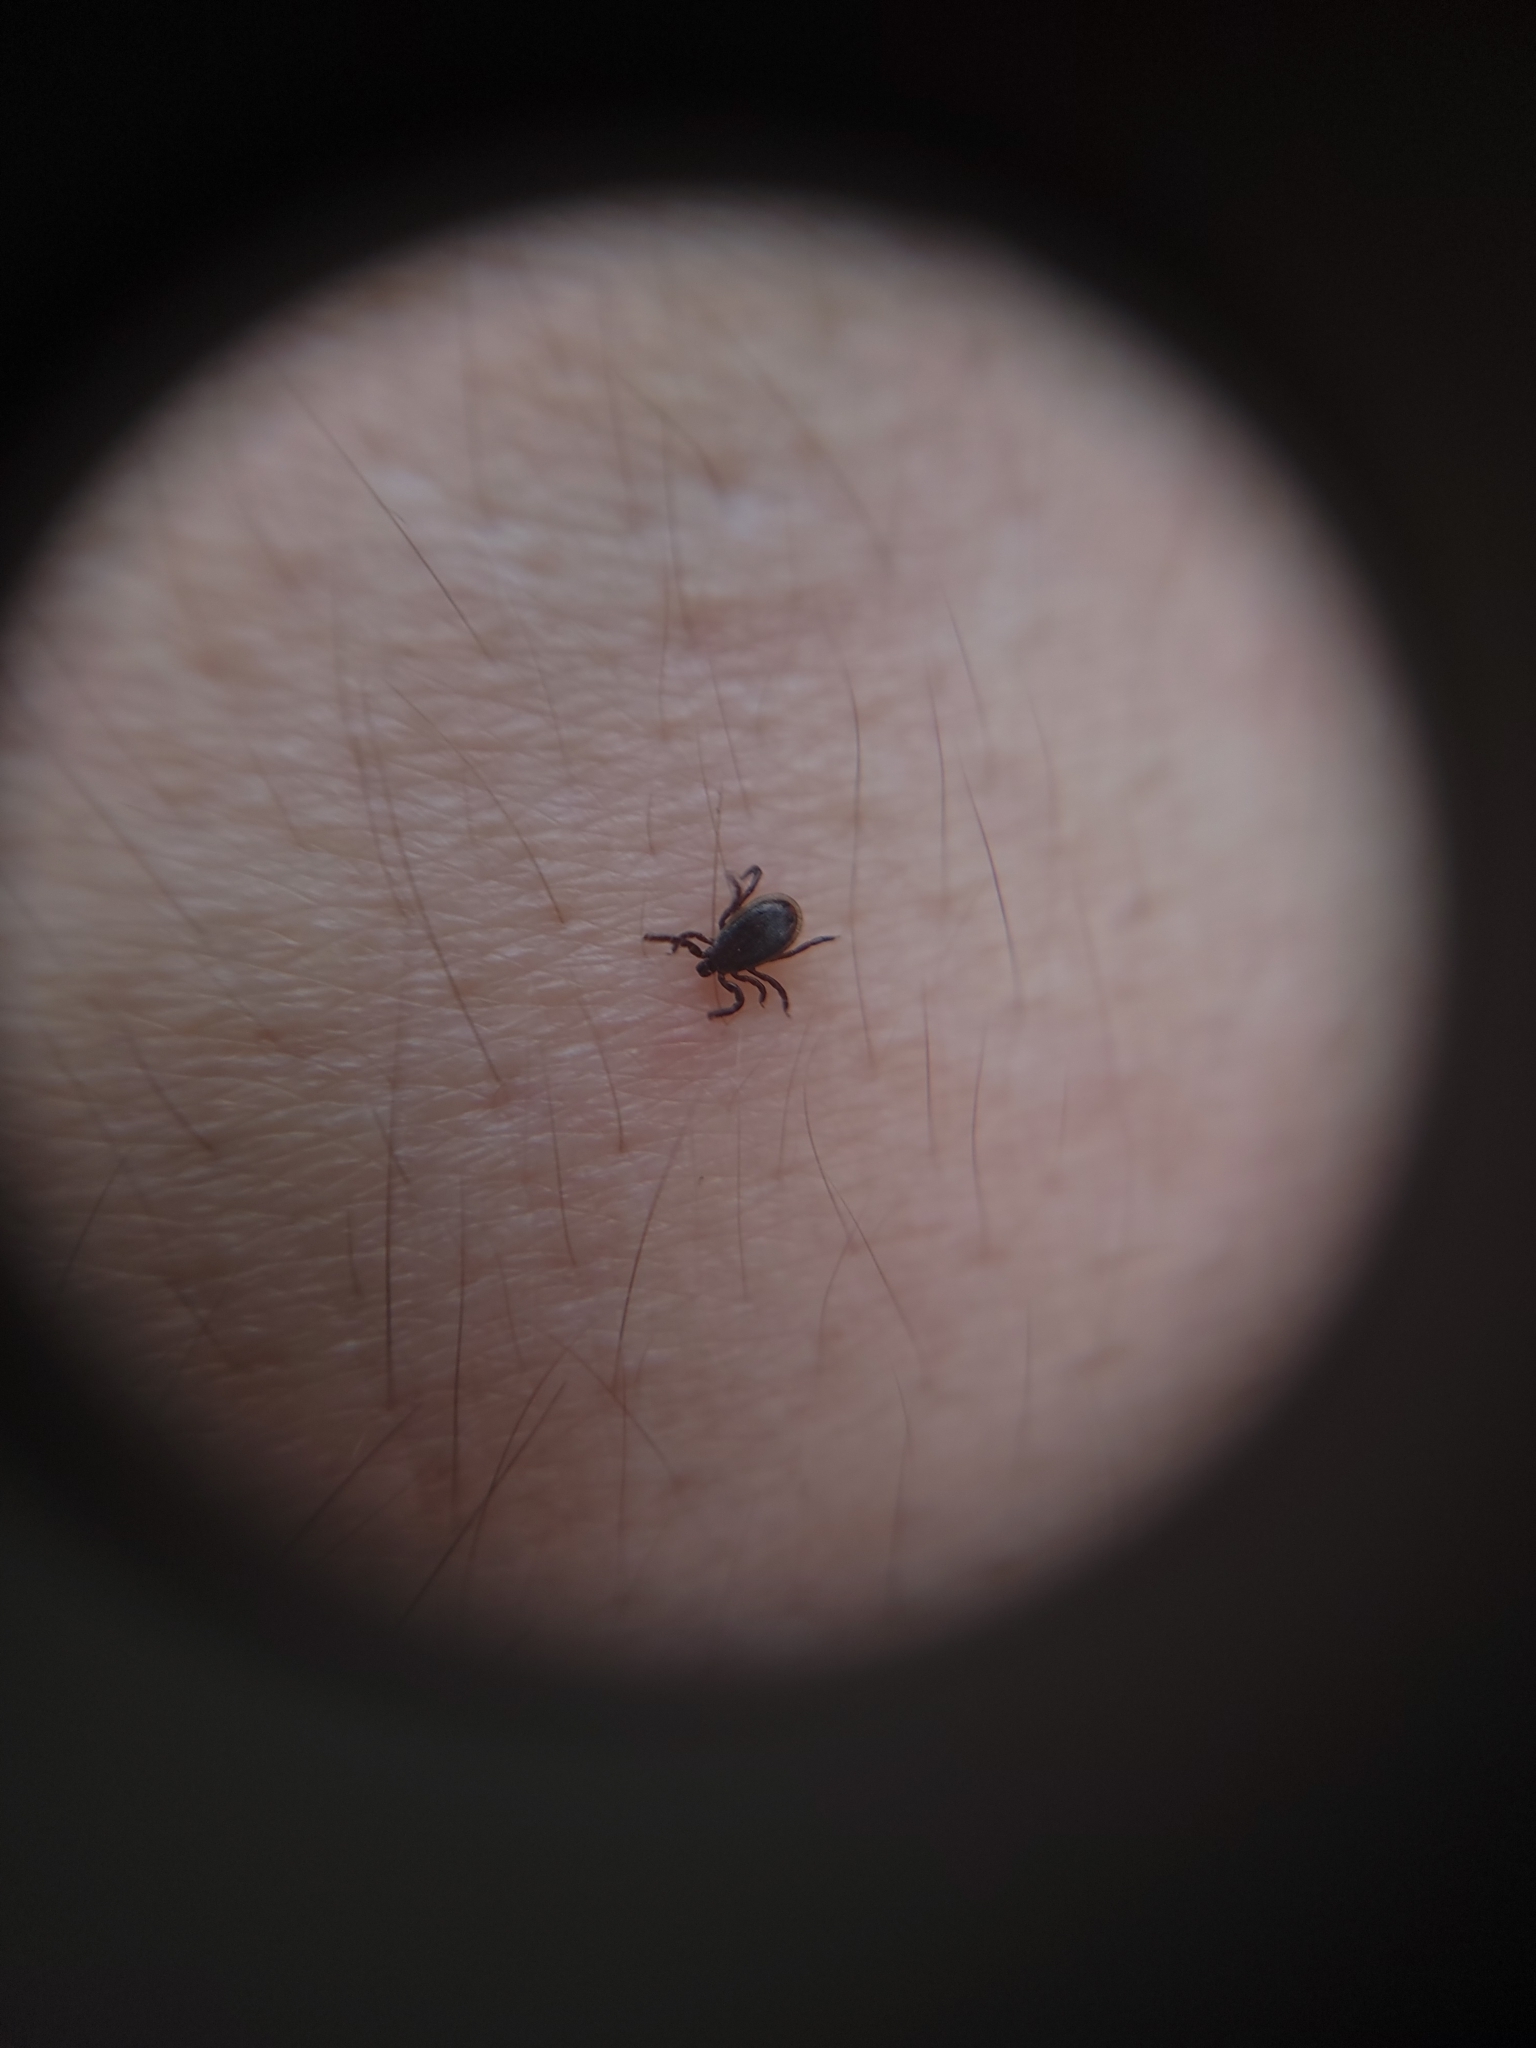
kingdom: Animalia
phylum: Arthropoda
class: Arachnida
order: Ixodida
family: Ixodidae
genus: Ixodes
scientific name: Ixodes scapularis
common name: Black legged tick
